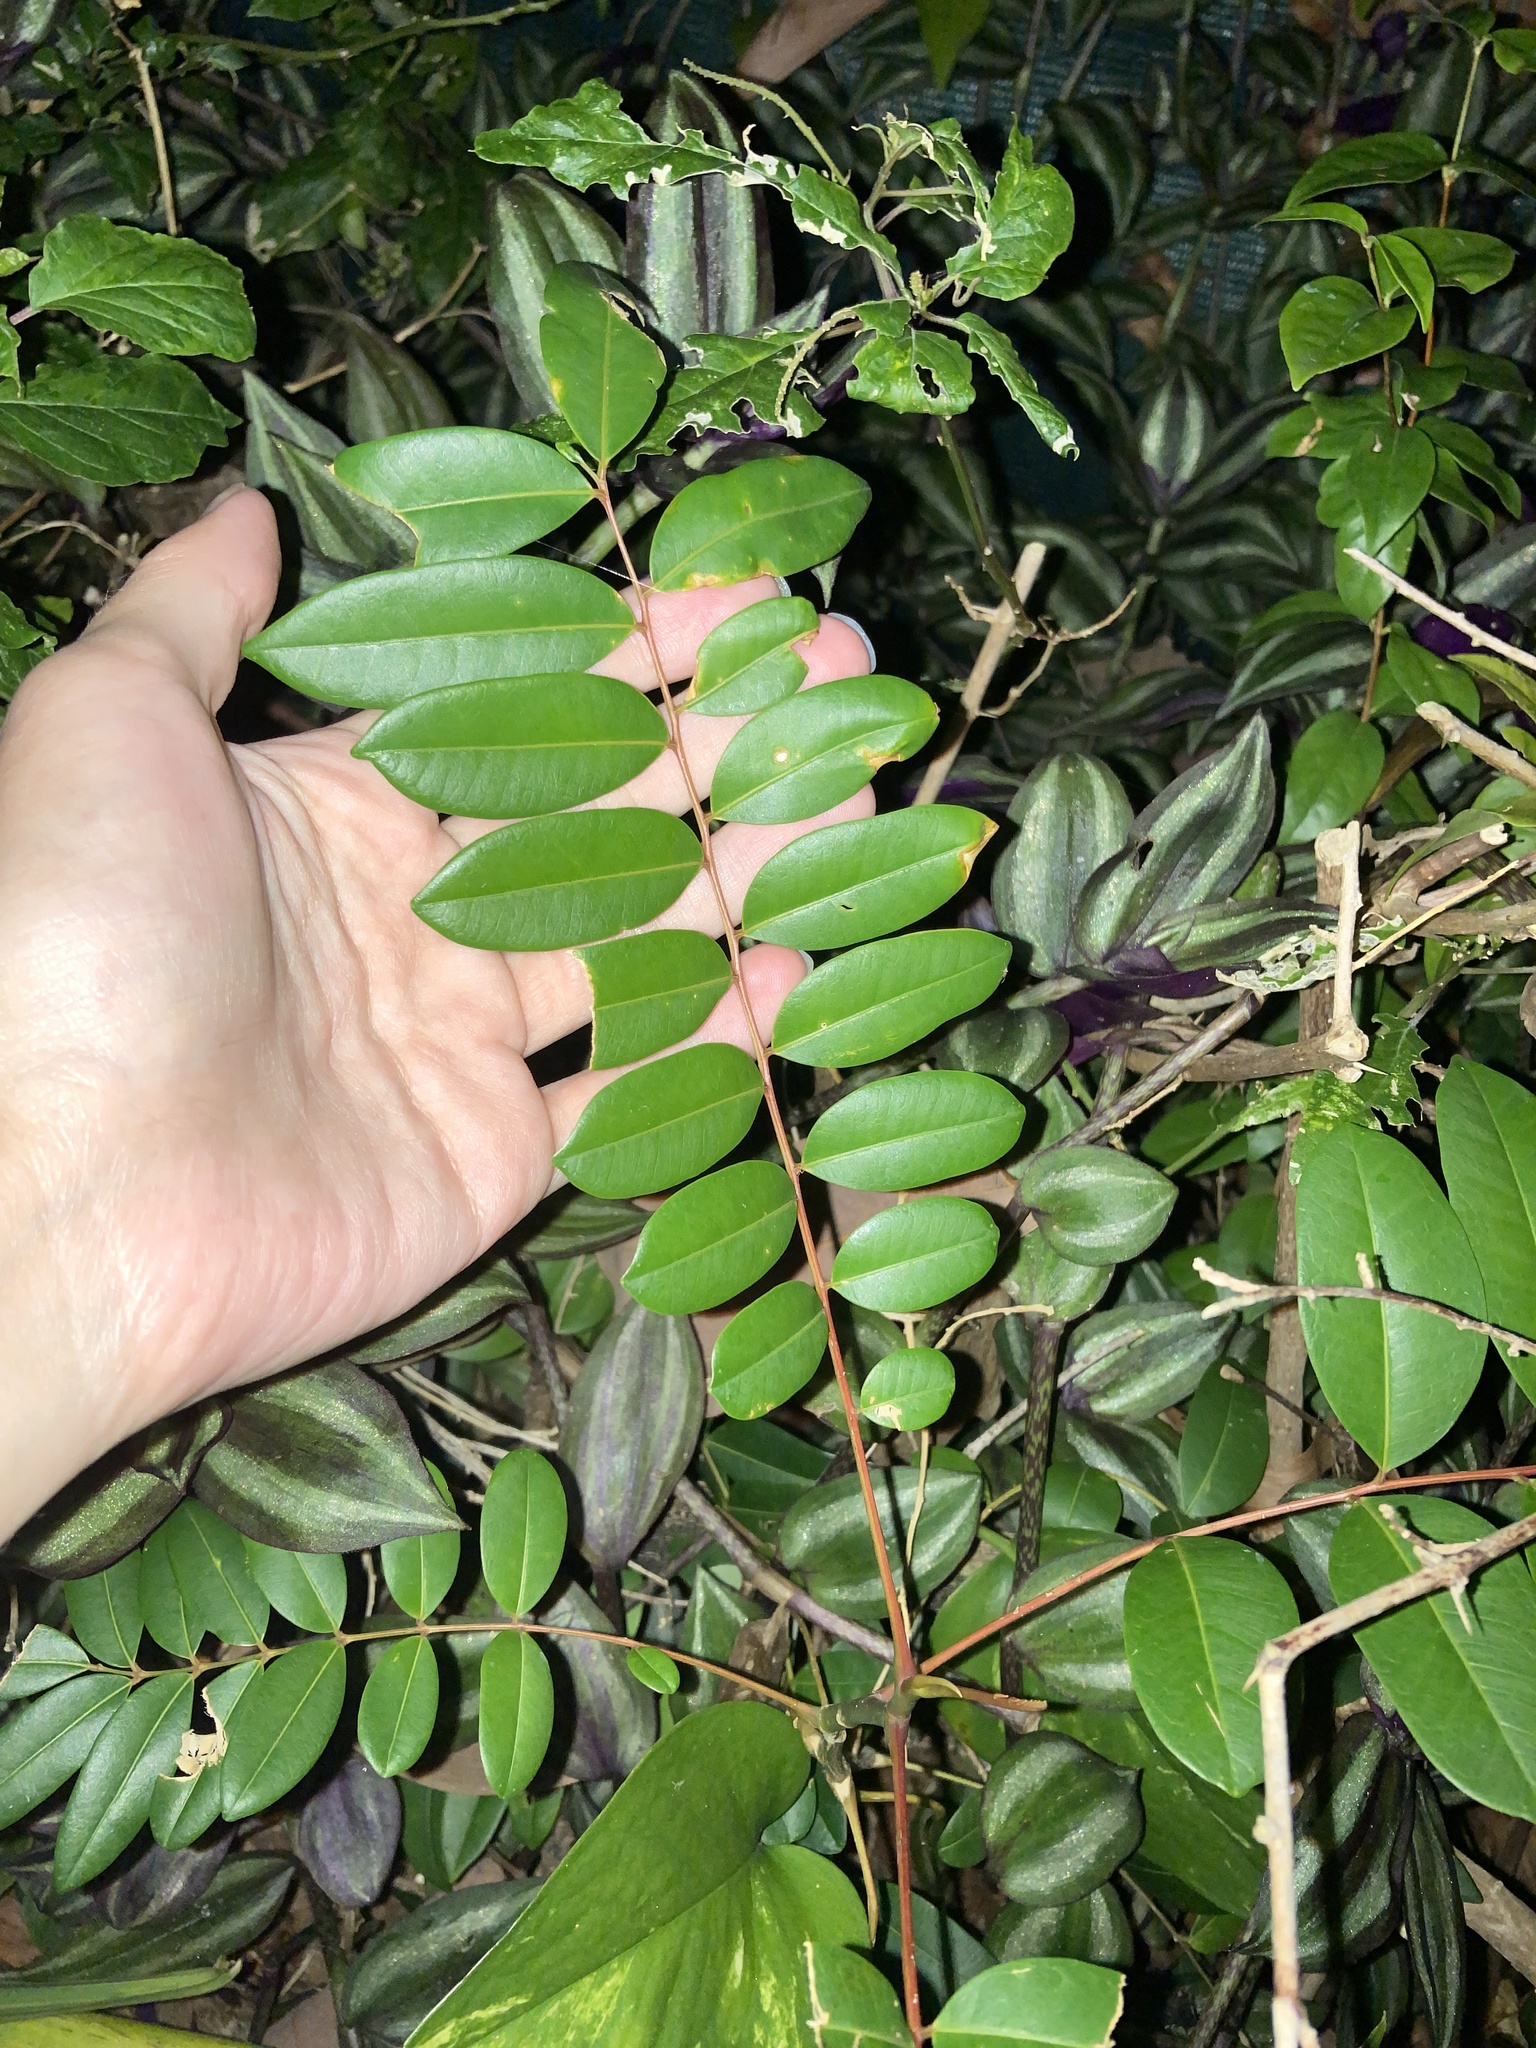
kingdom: Plantae
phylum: Tracheophyta
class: Magnoliopsida
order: Sapindales
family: Simaroubaceae
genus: Simarouba
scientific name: Simarouba glauca
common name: Dysentery-bark
